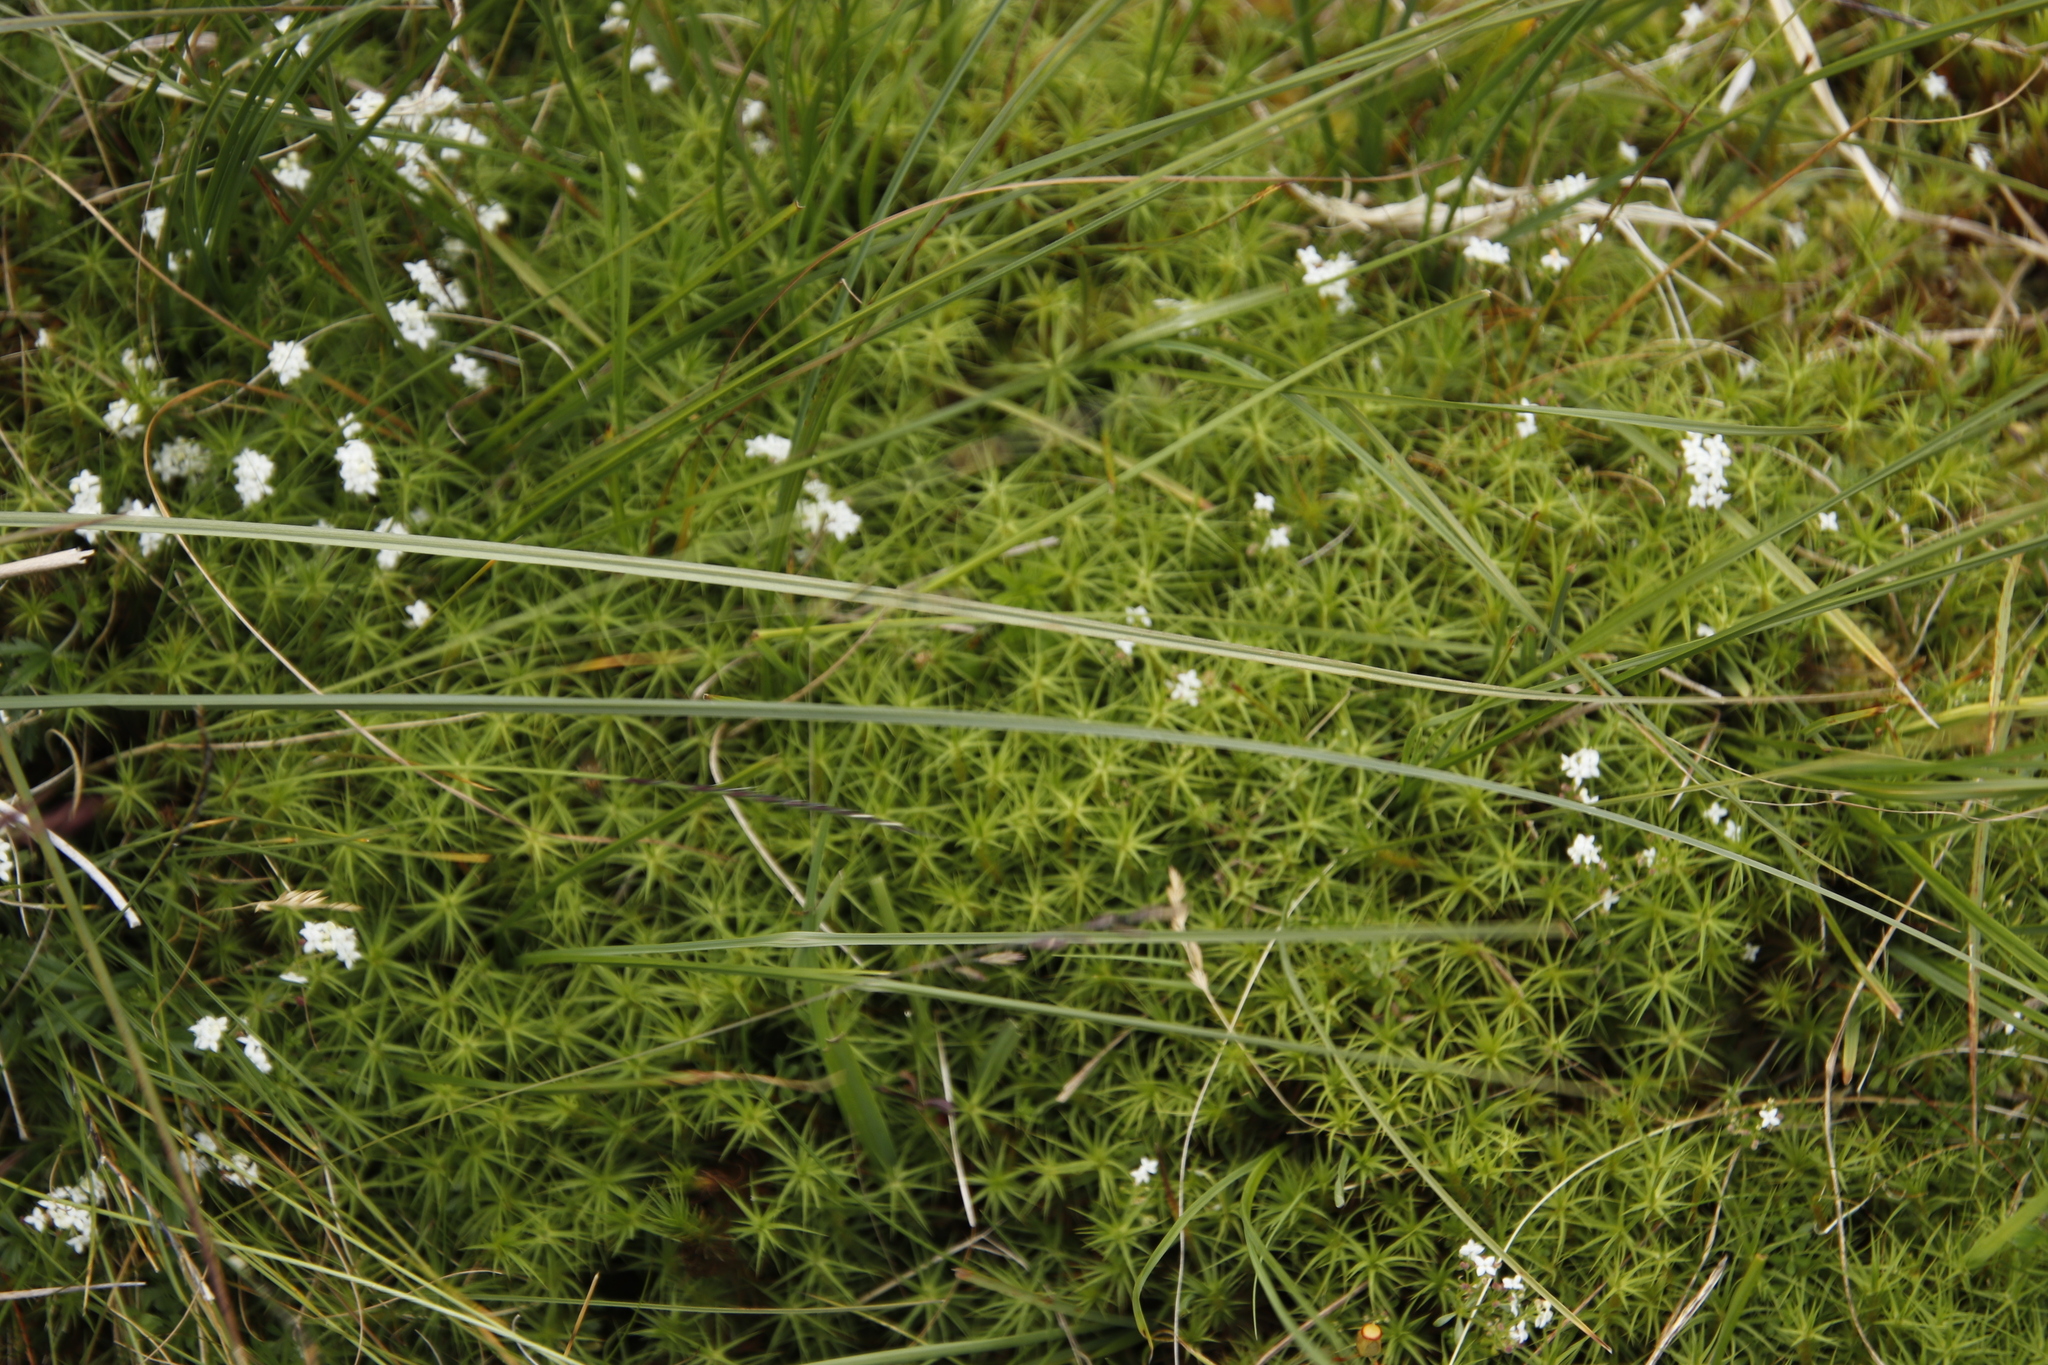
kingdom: Plantae
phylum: Bryophyta
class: Polytrichopsida
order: Polytrichales
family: Polytrichaceae
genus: Polytrichum
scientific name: Polytrichum commune
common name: Common haircap
